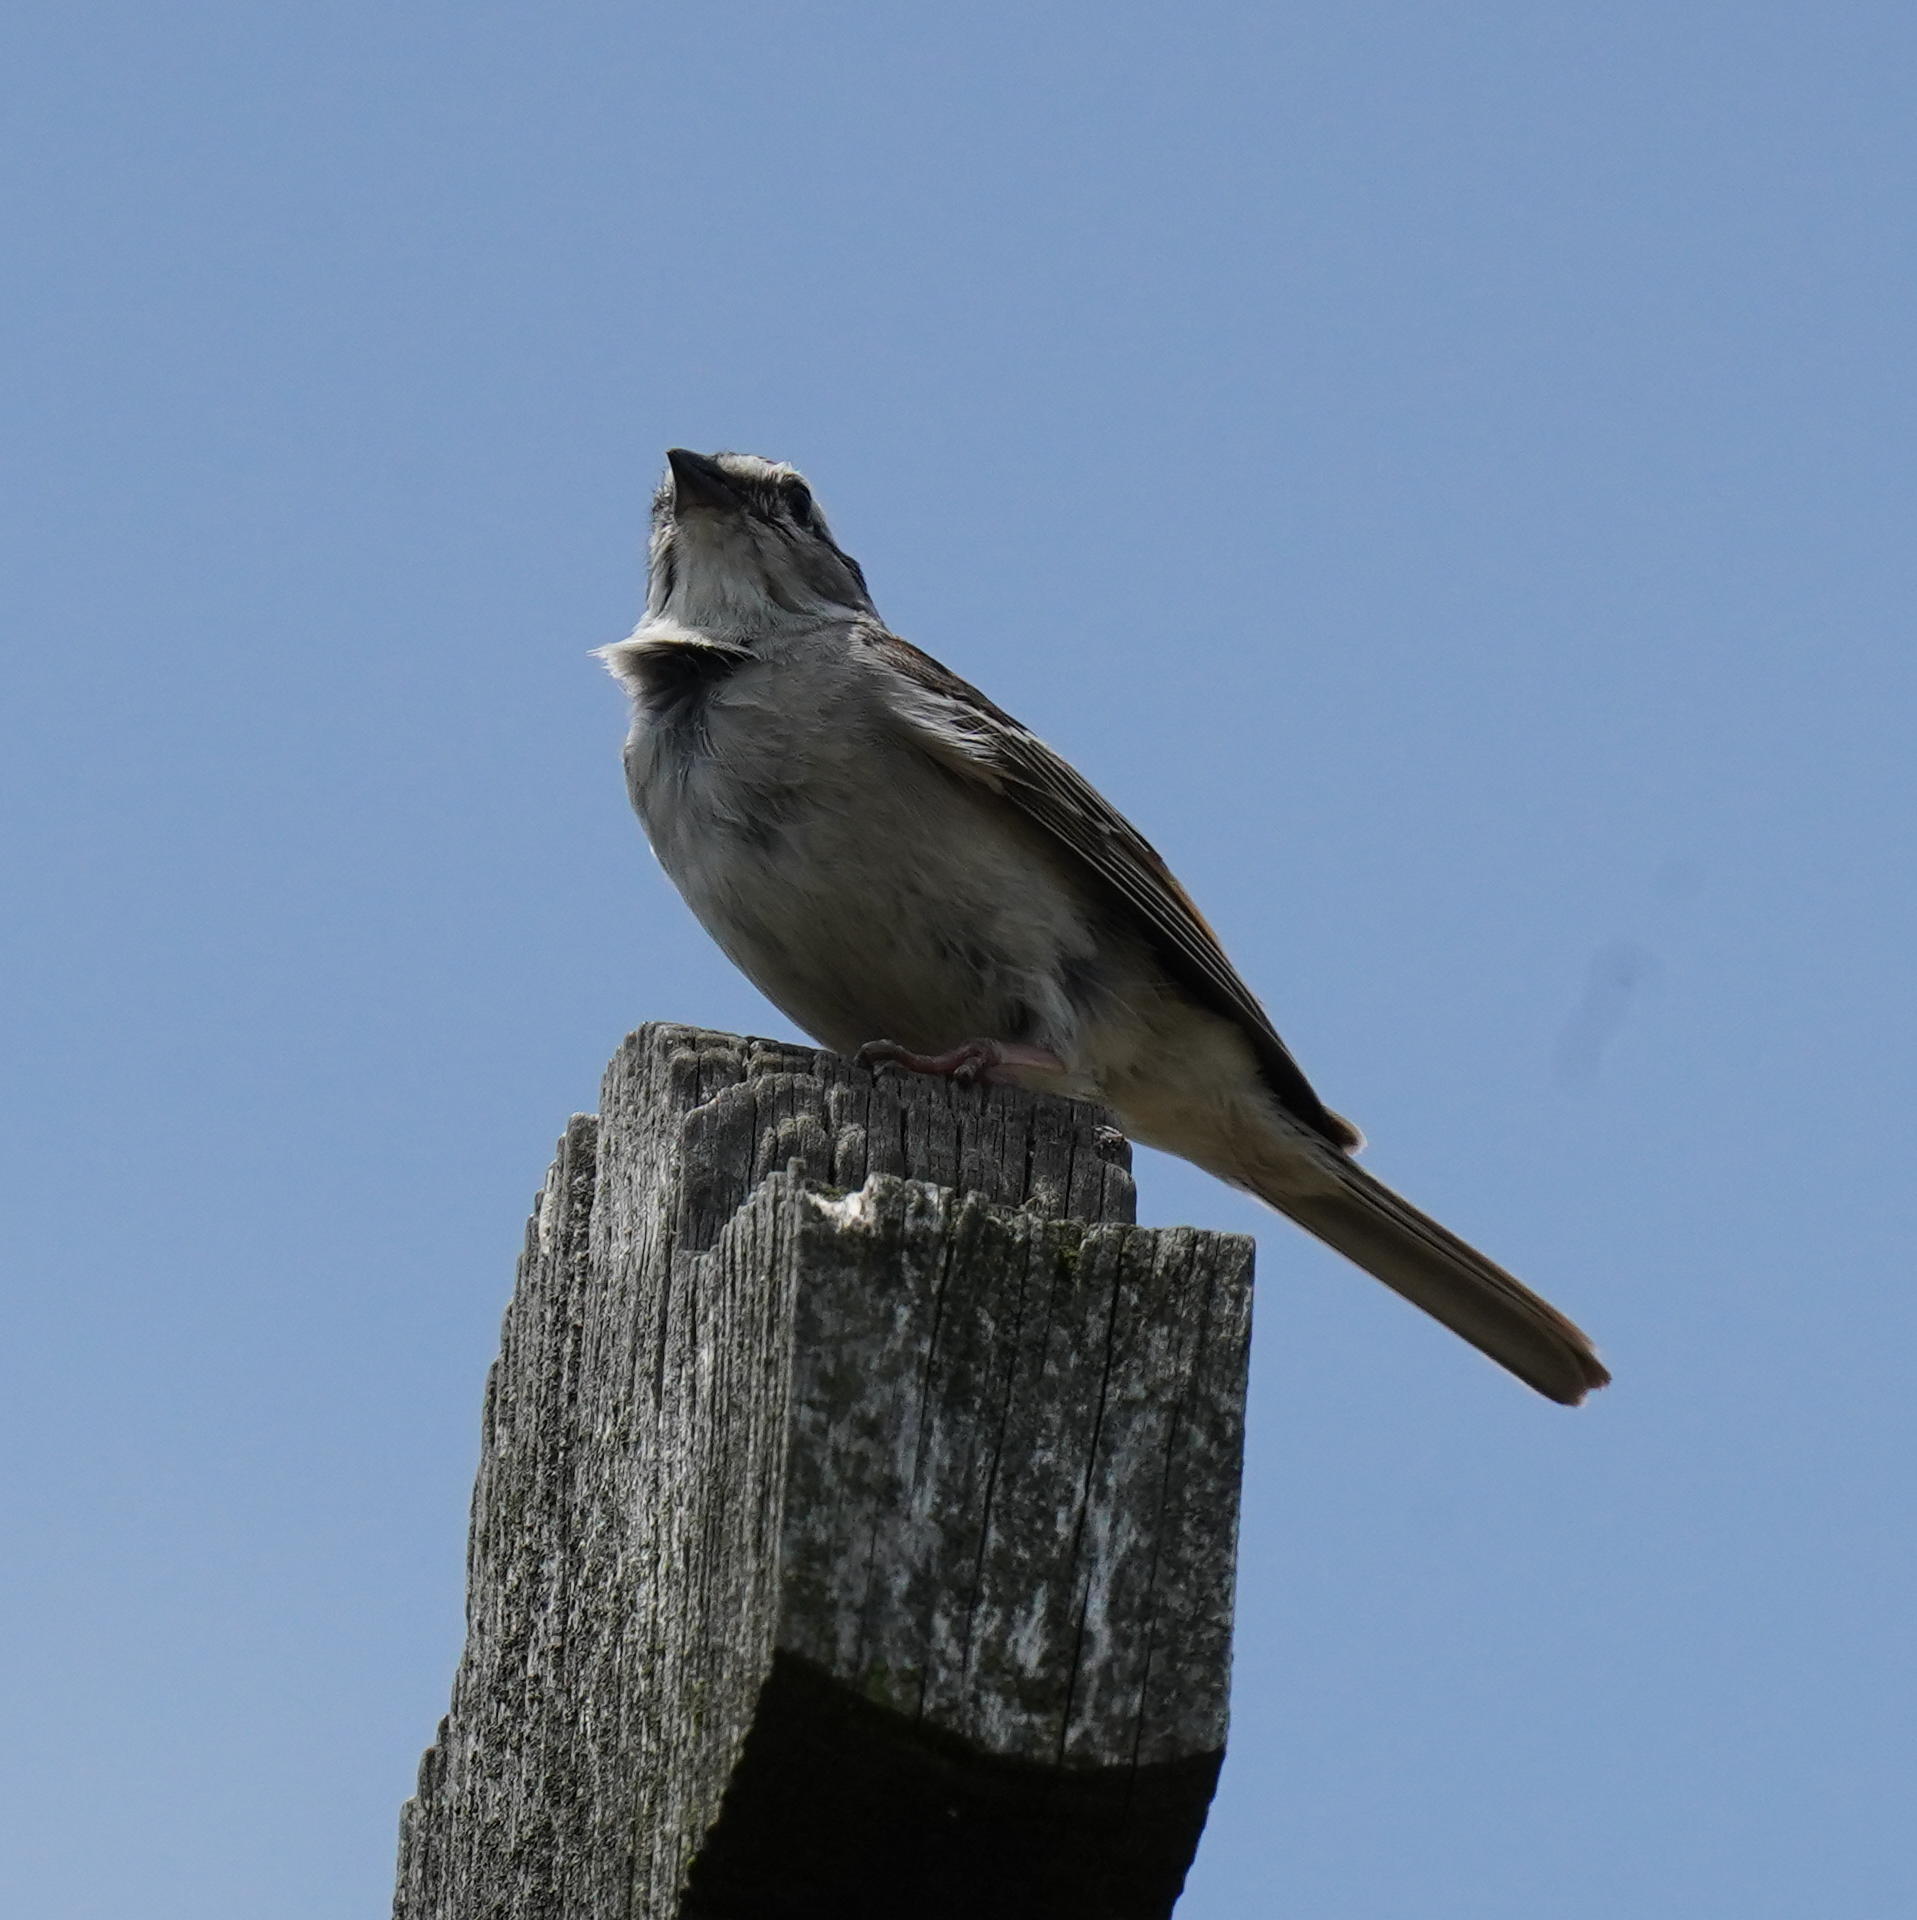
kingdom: Animalia
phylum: Chordata
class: Aves
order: Passeriformes
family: Passerellidae
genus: Spizella
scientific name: Spizella passerina
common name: Chipping sparrow
